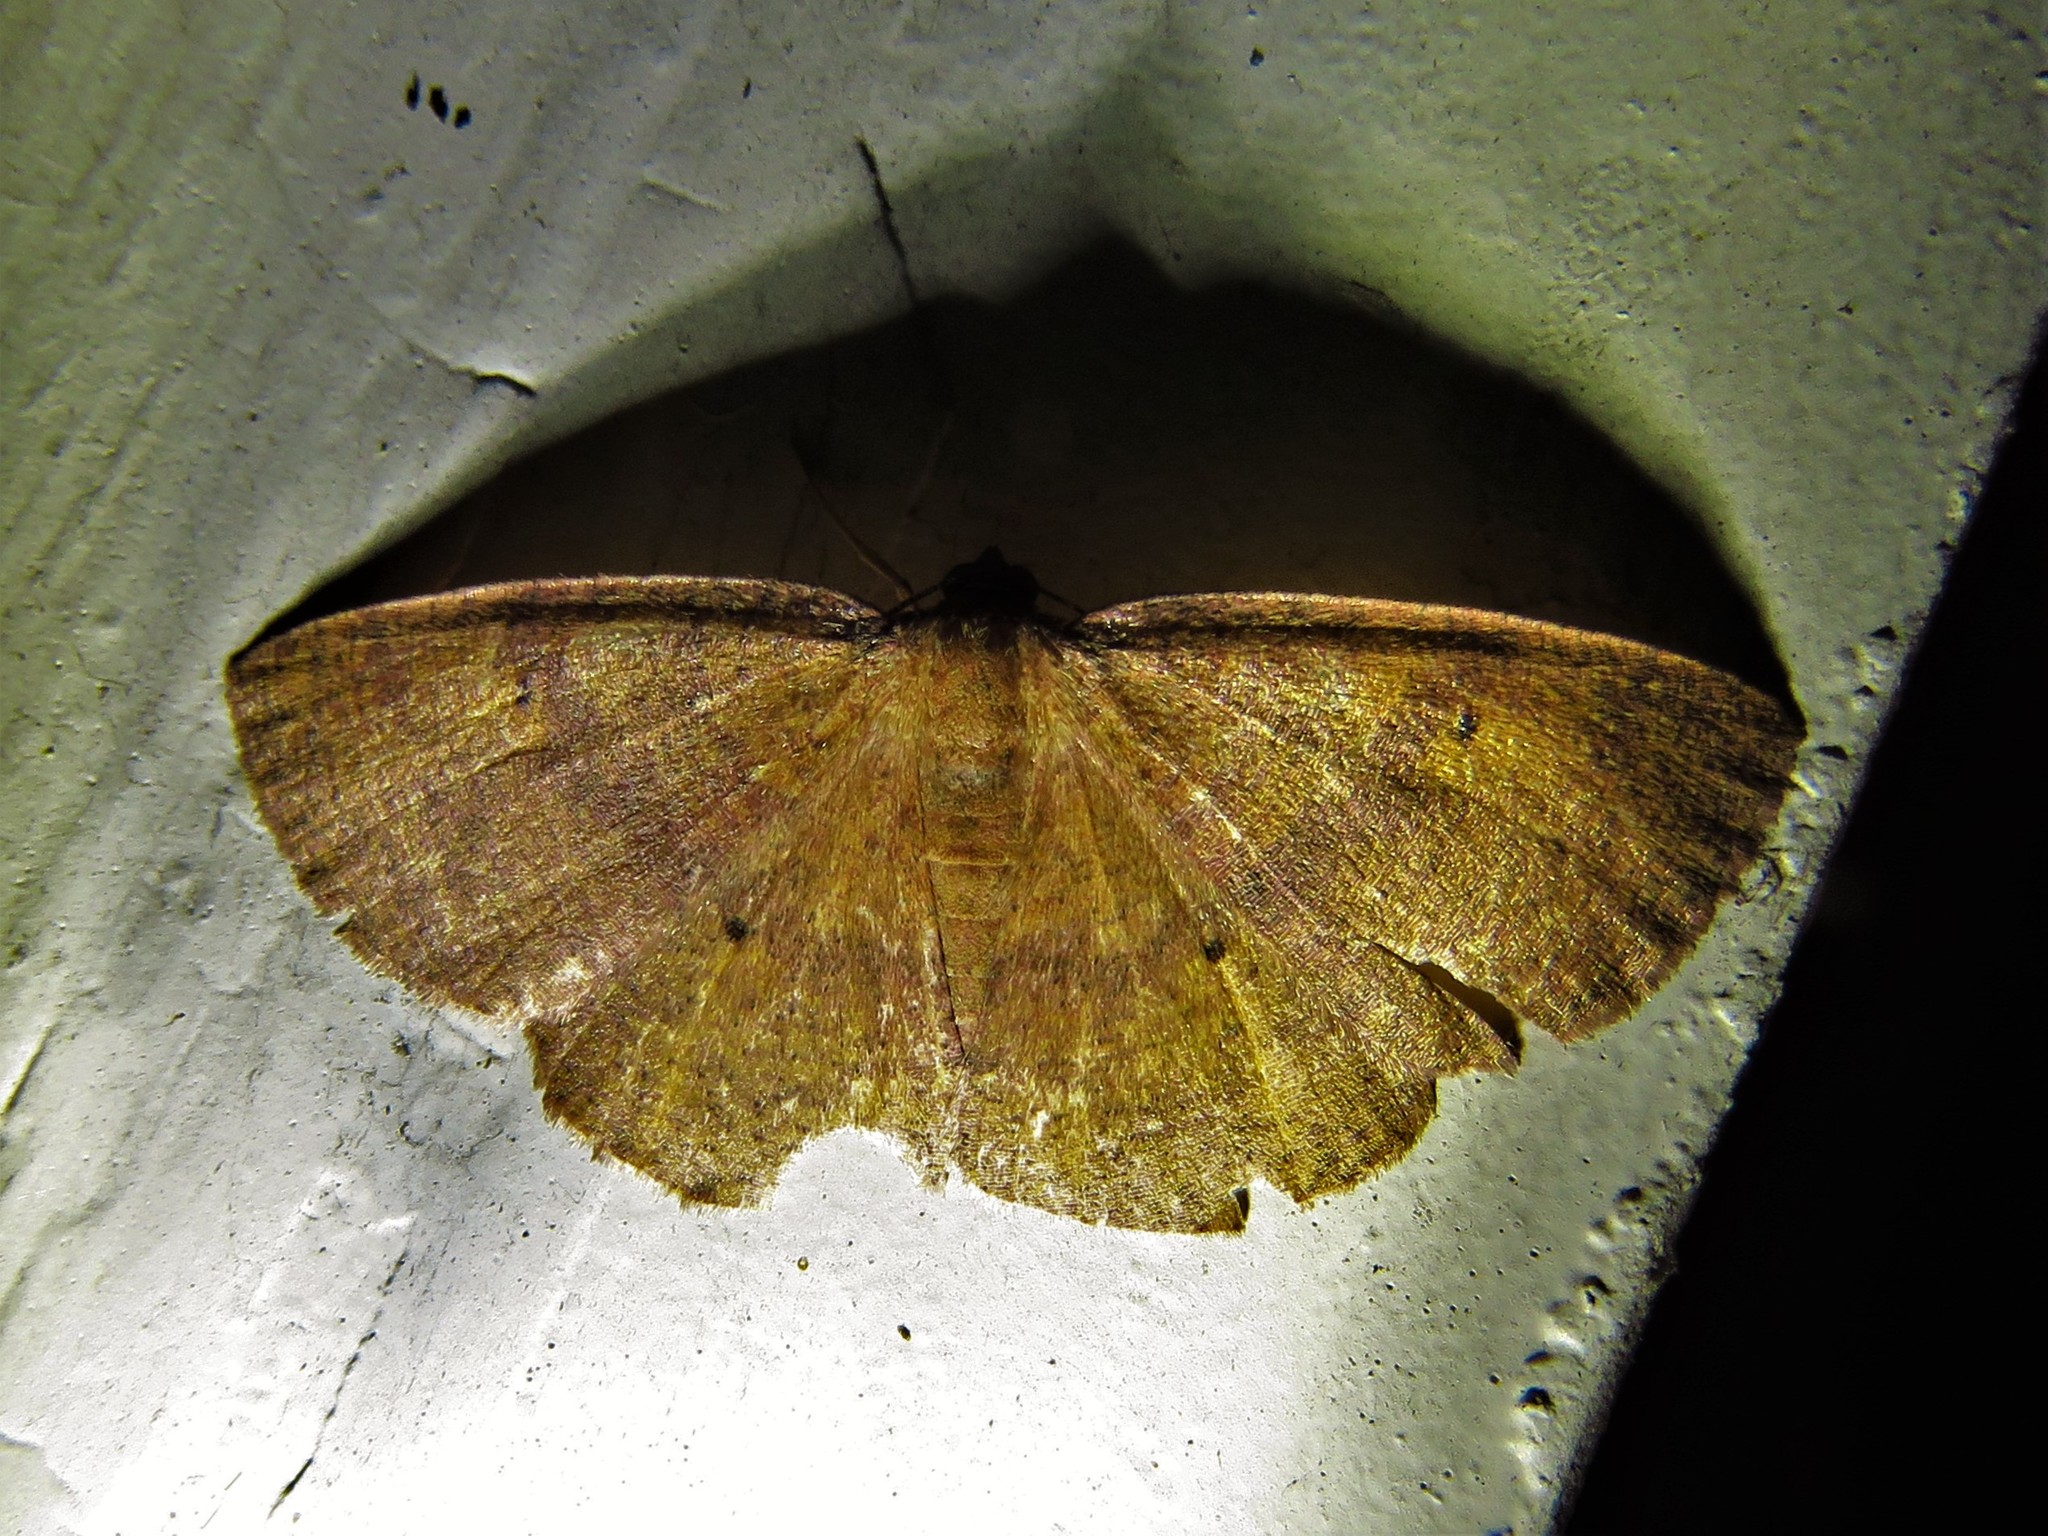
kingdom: Animalia
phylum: Arthropoda
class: Insecta
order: Lepidoptera
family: Geometridae
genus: Ilexia
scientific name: Ilexia intractata
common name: Black-dotted ruddy moth
